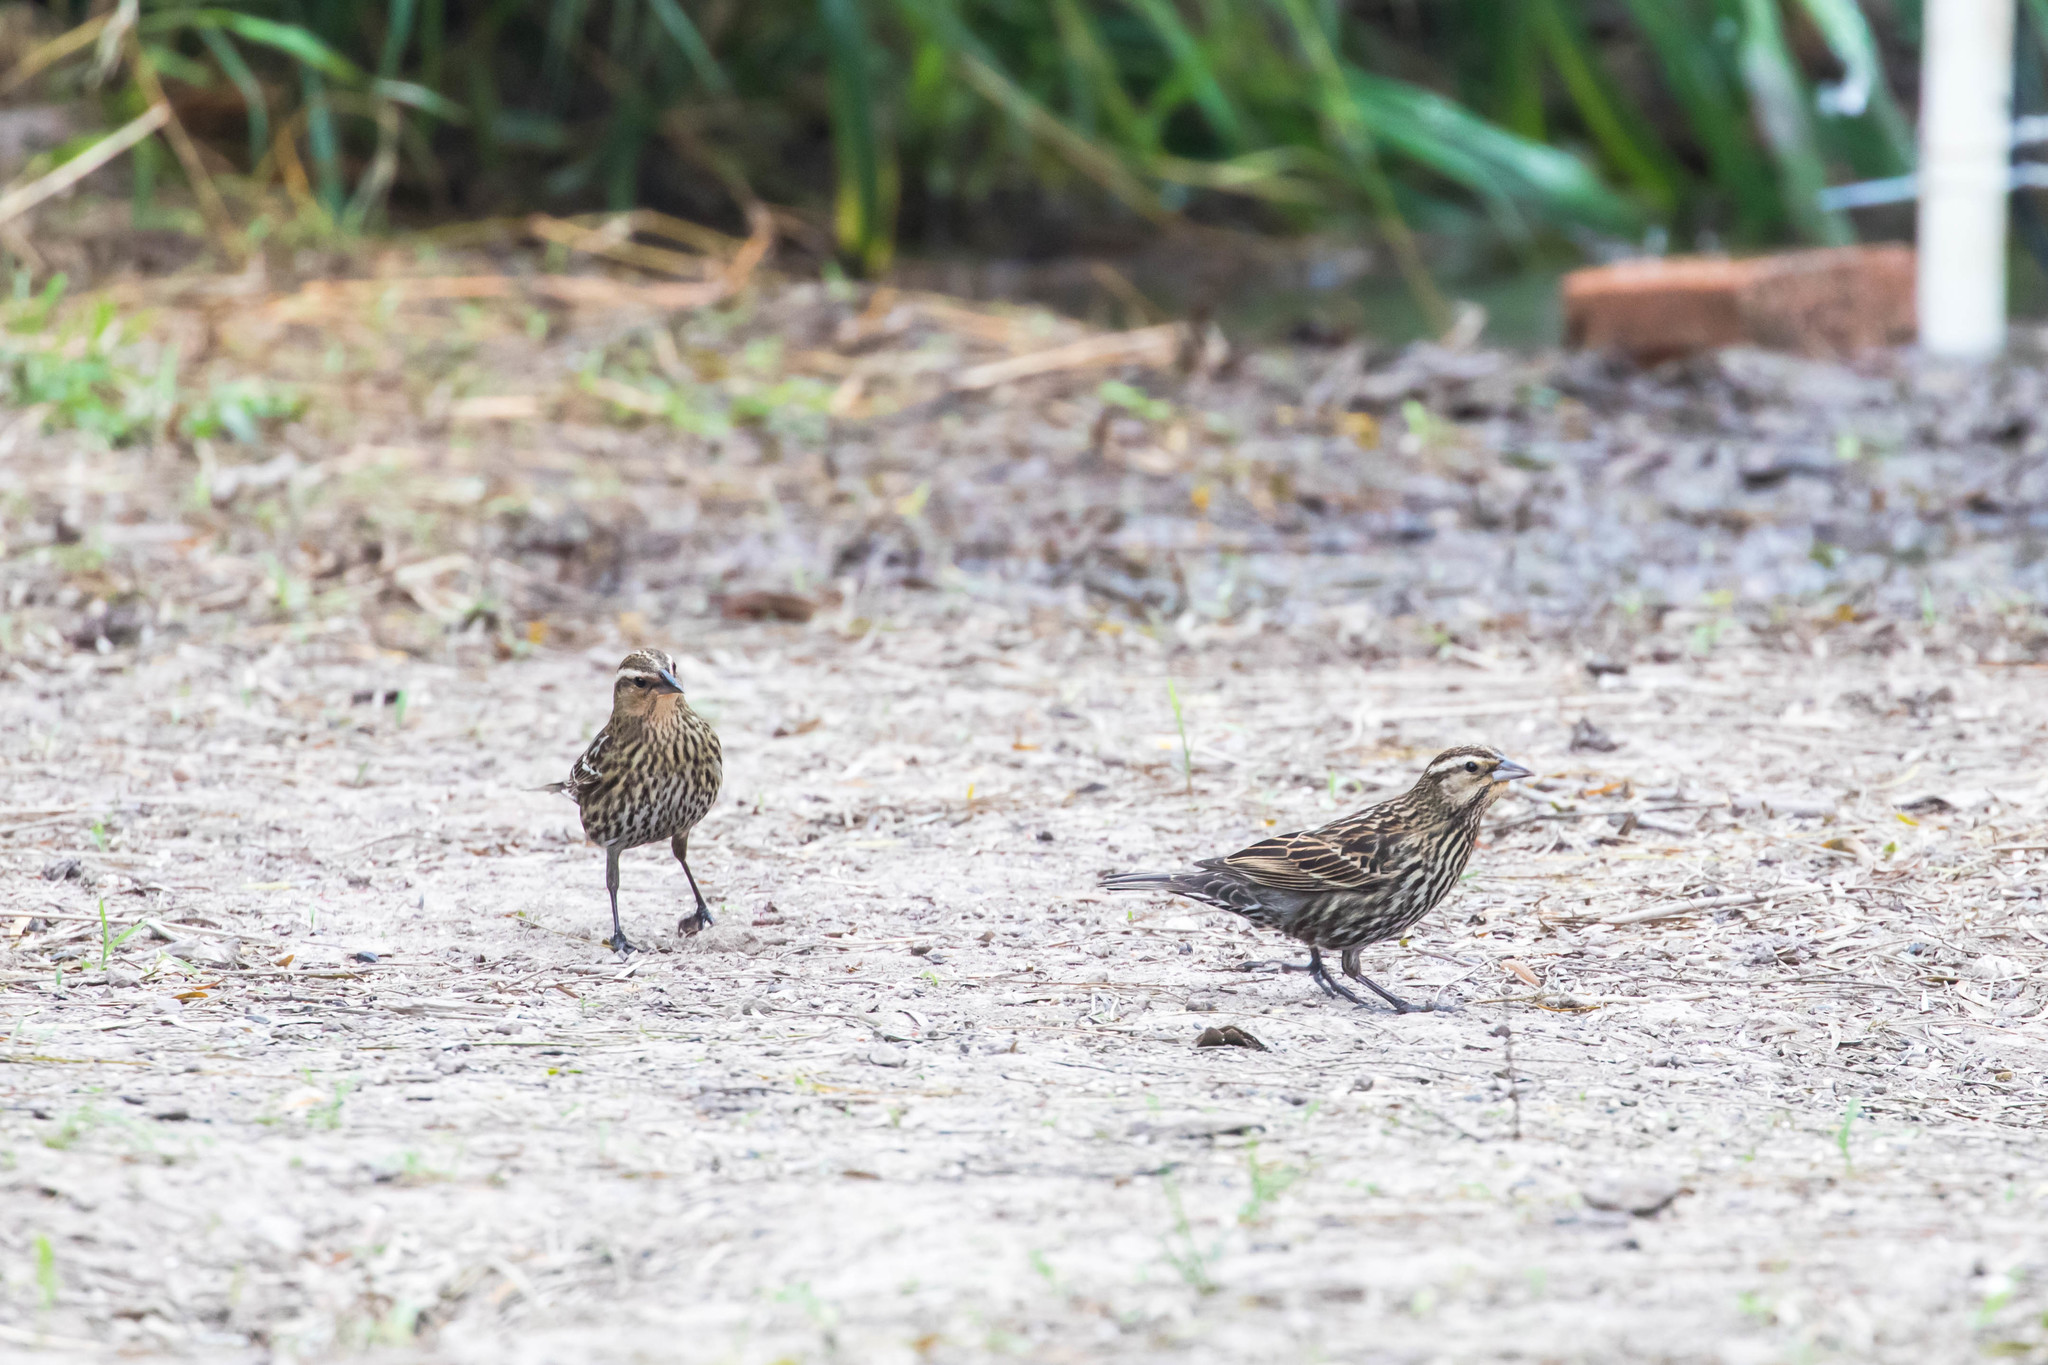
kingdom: Animalia
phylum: Chordata
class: Aves
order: Passeriformes
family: Icteridae
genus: Agelaius
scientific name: Agelaius phoeniceus
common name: Red-winged blackbird
